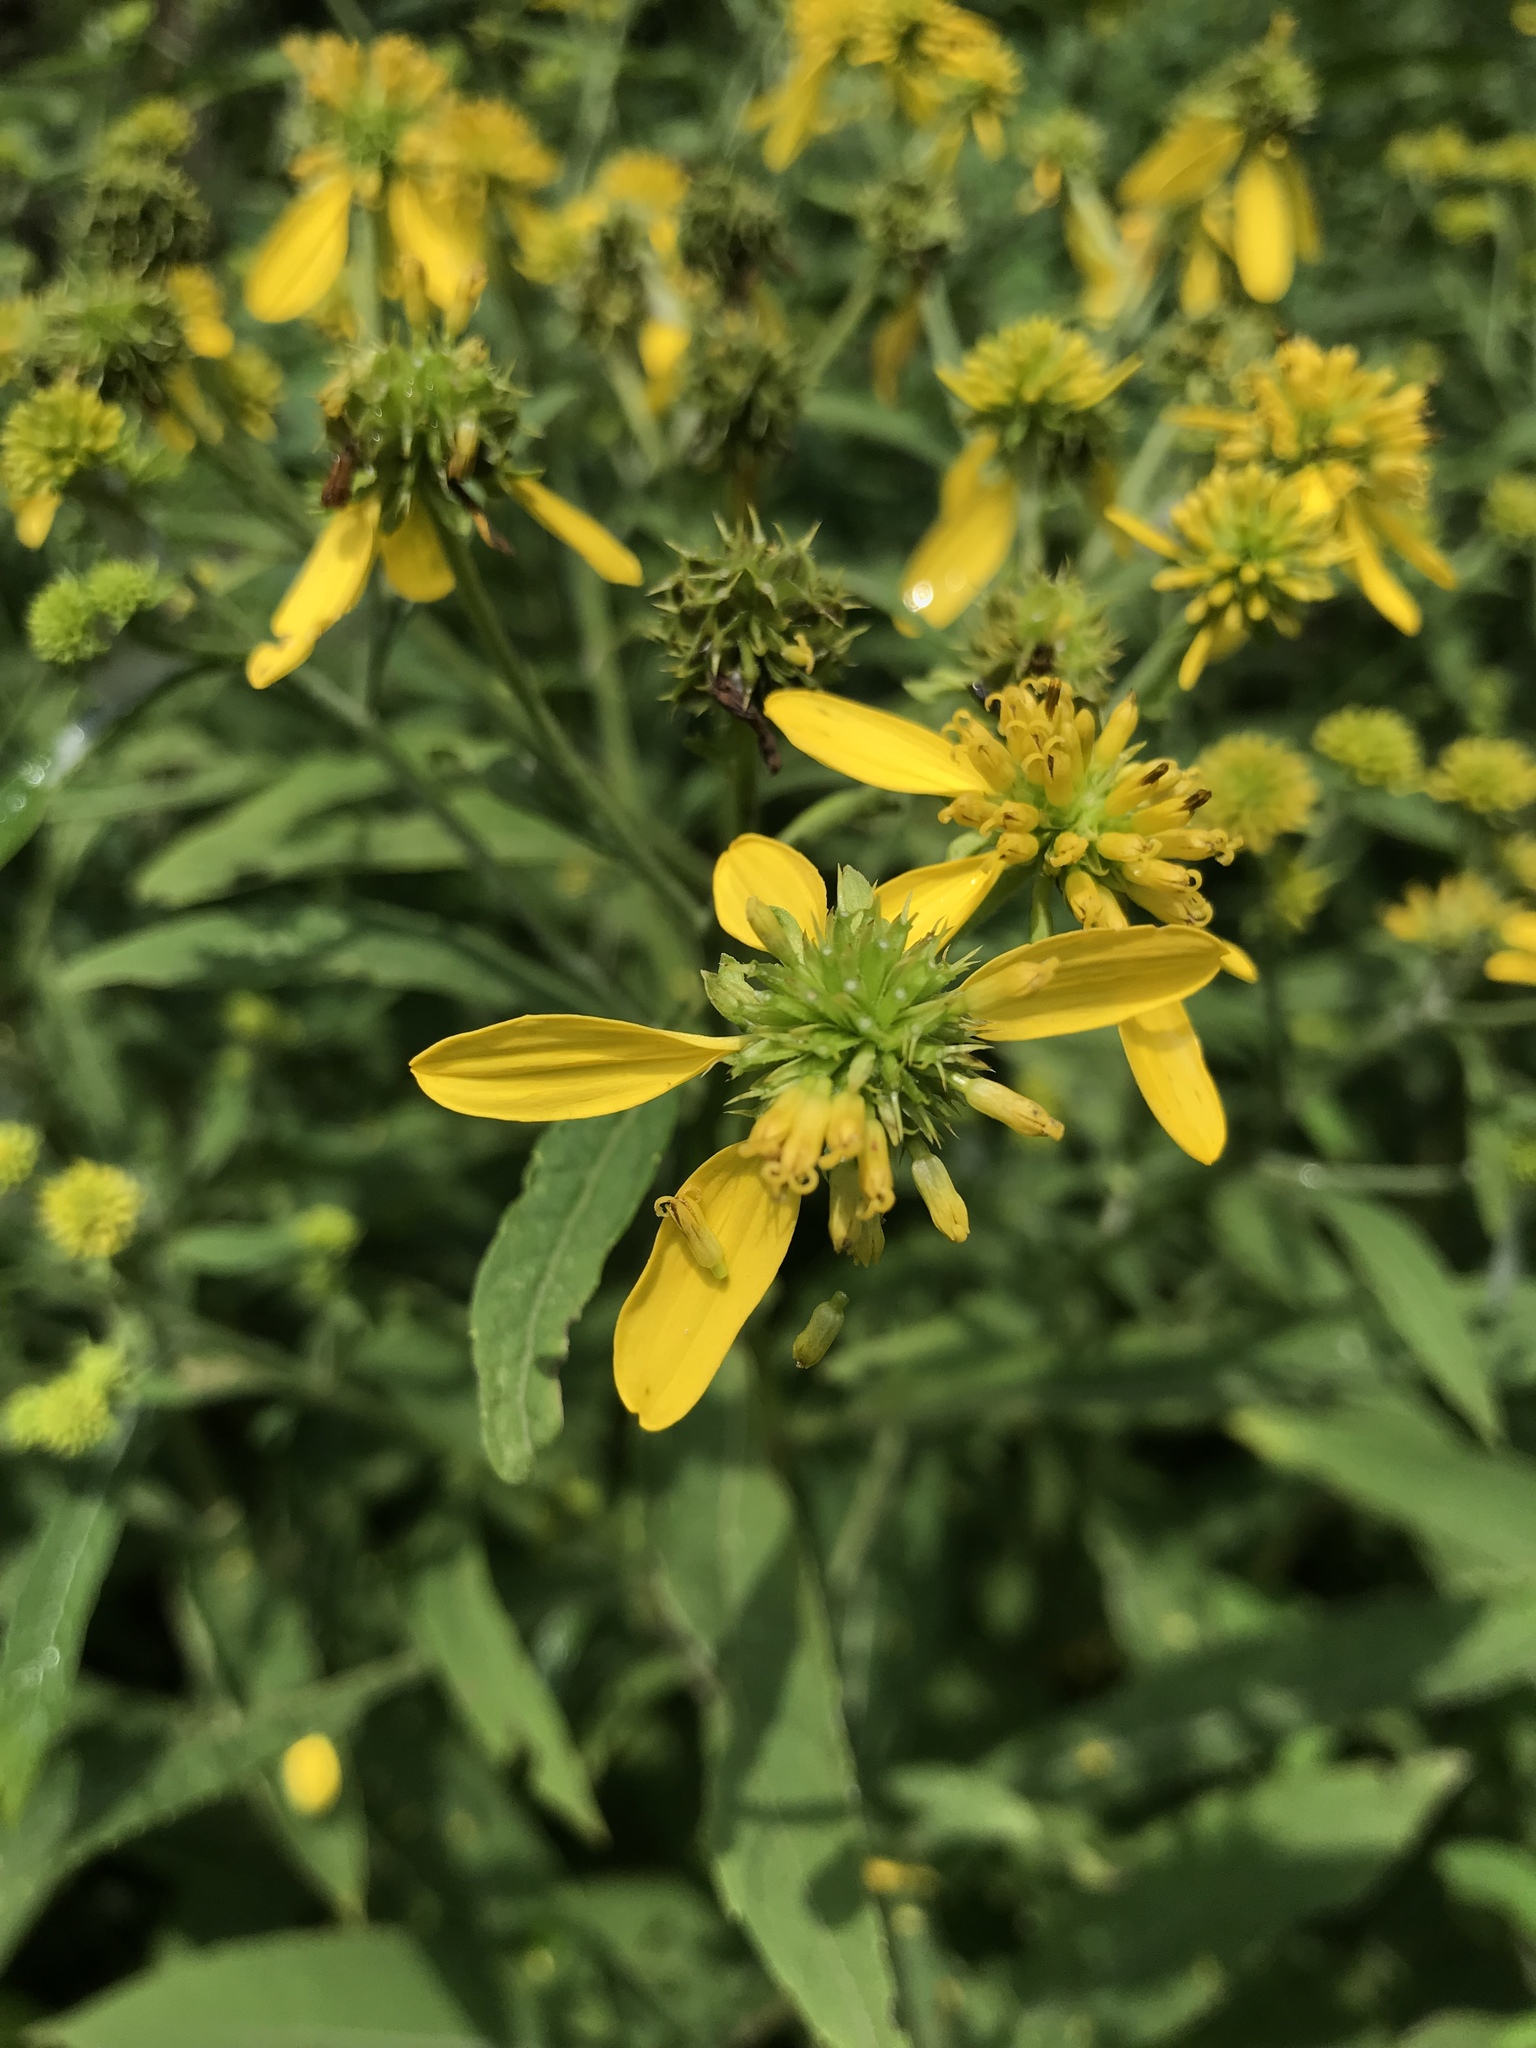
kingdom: Plantae
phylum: Tracheophyta
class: Magnoliopsida
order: Asterales
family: Asteraceae
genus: Verbesina
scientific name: Verbesina alternifolia
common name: Wingstem
